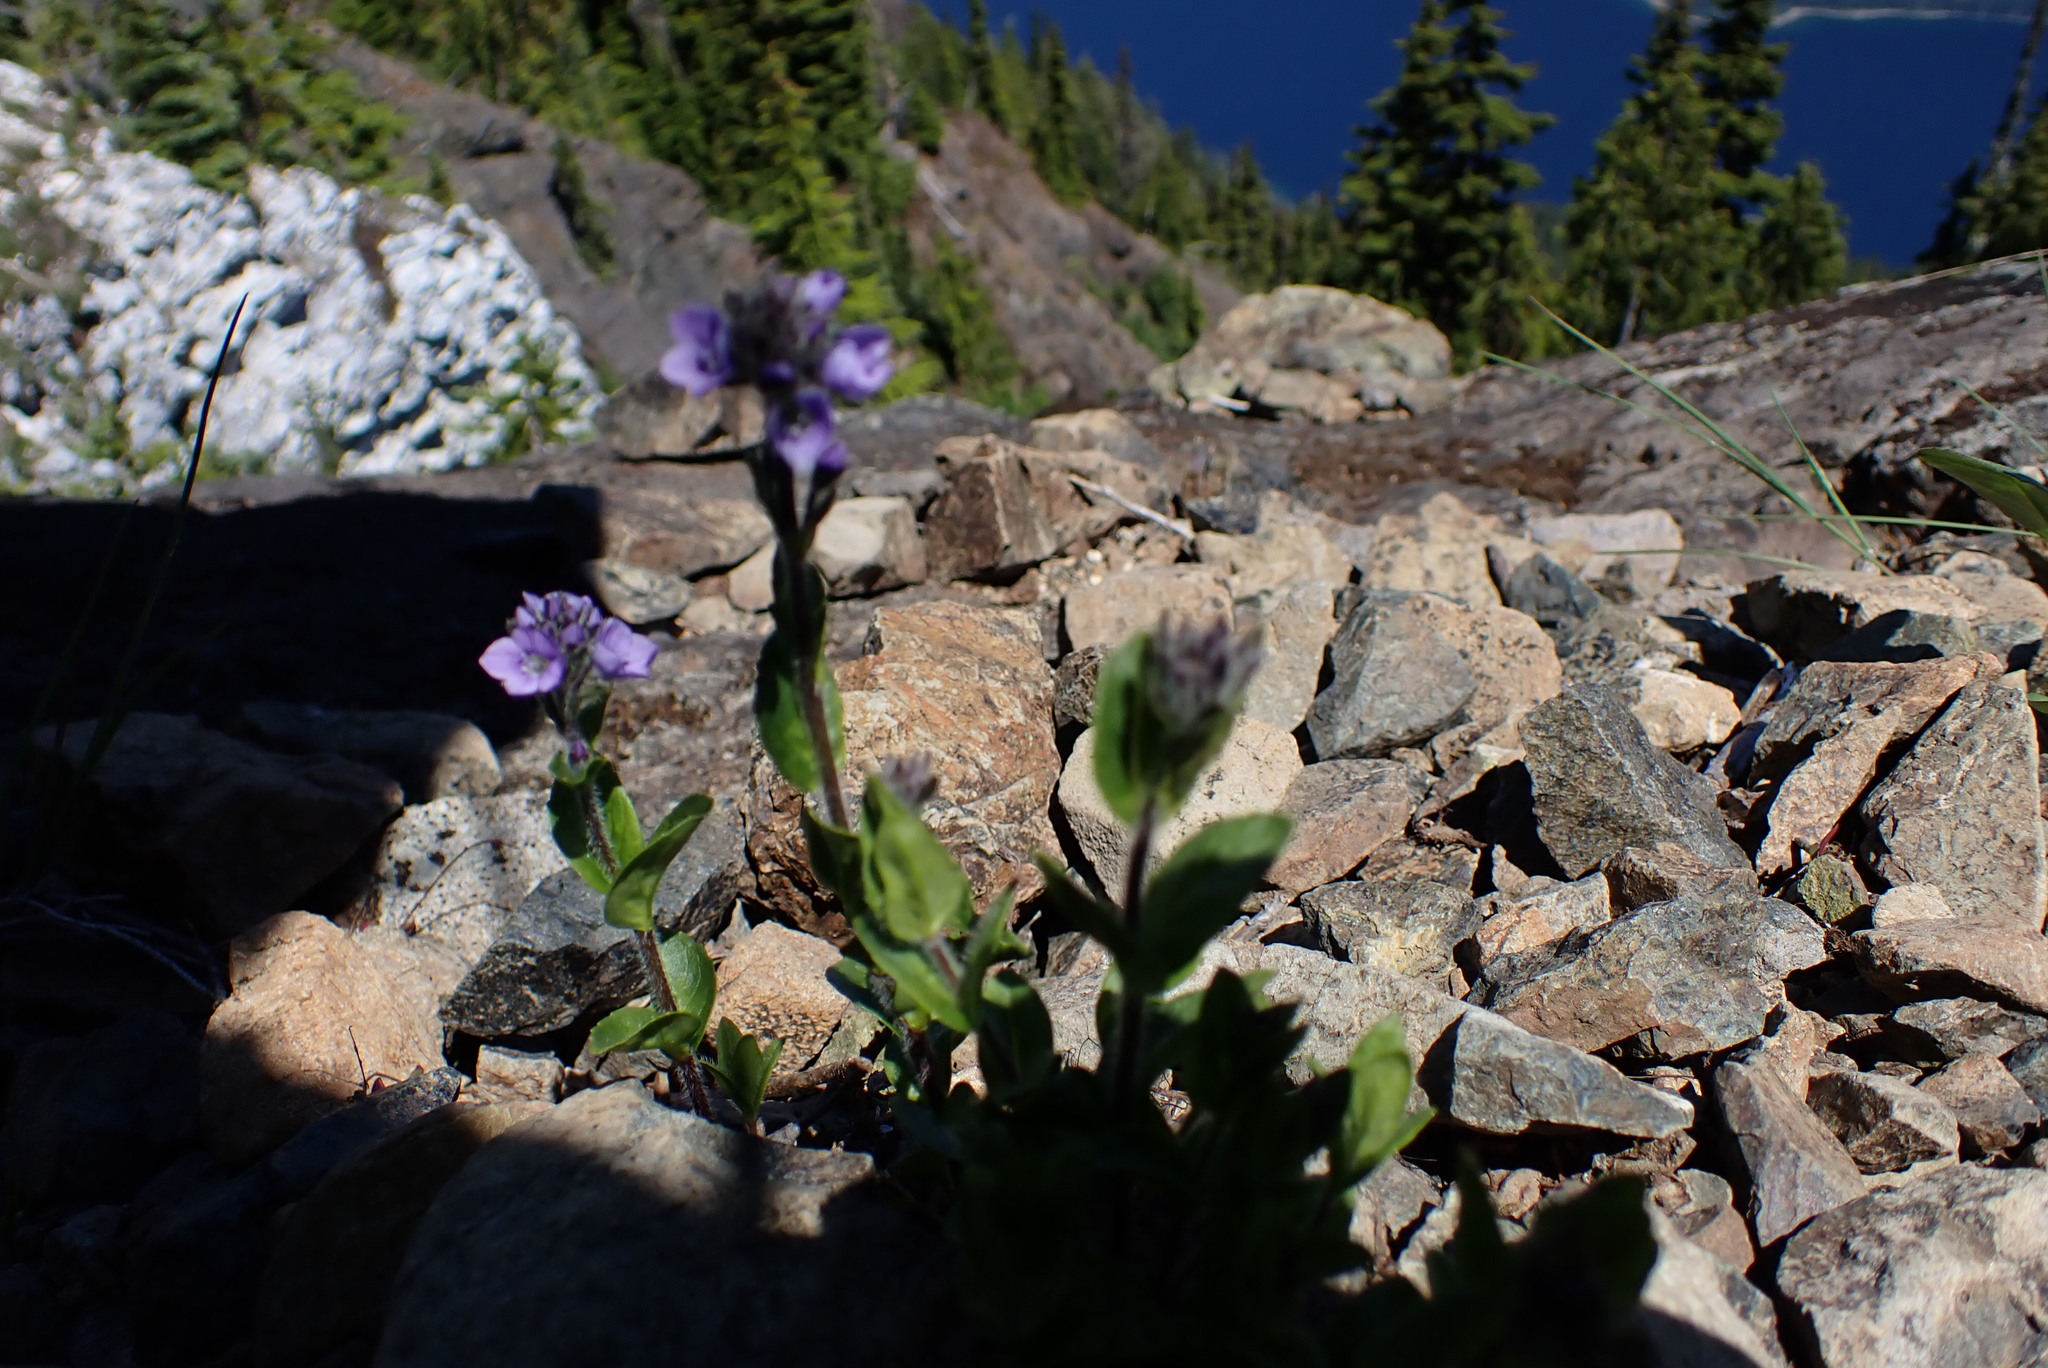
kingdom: Plantae
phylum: Tracheophyta
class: Magnoliopsida
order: Lamiales
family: Plantaginaceae
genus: Veronica
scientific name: Veronica wormskjoldii
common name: American alpine speedwell
